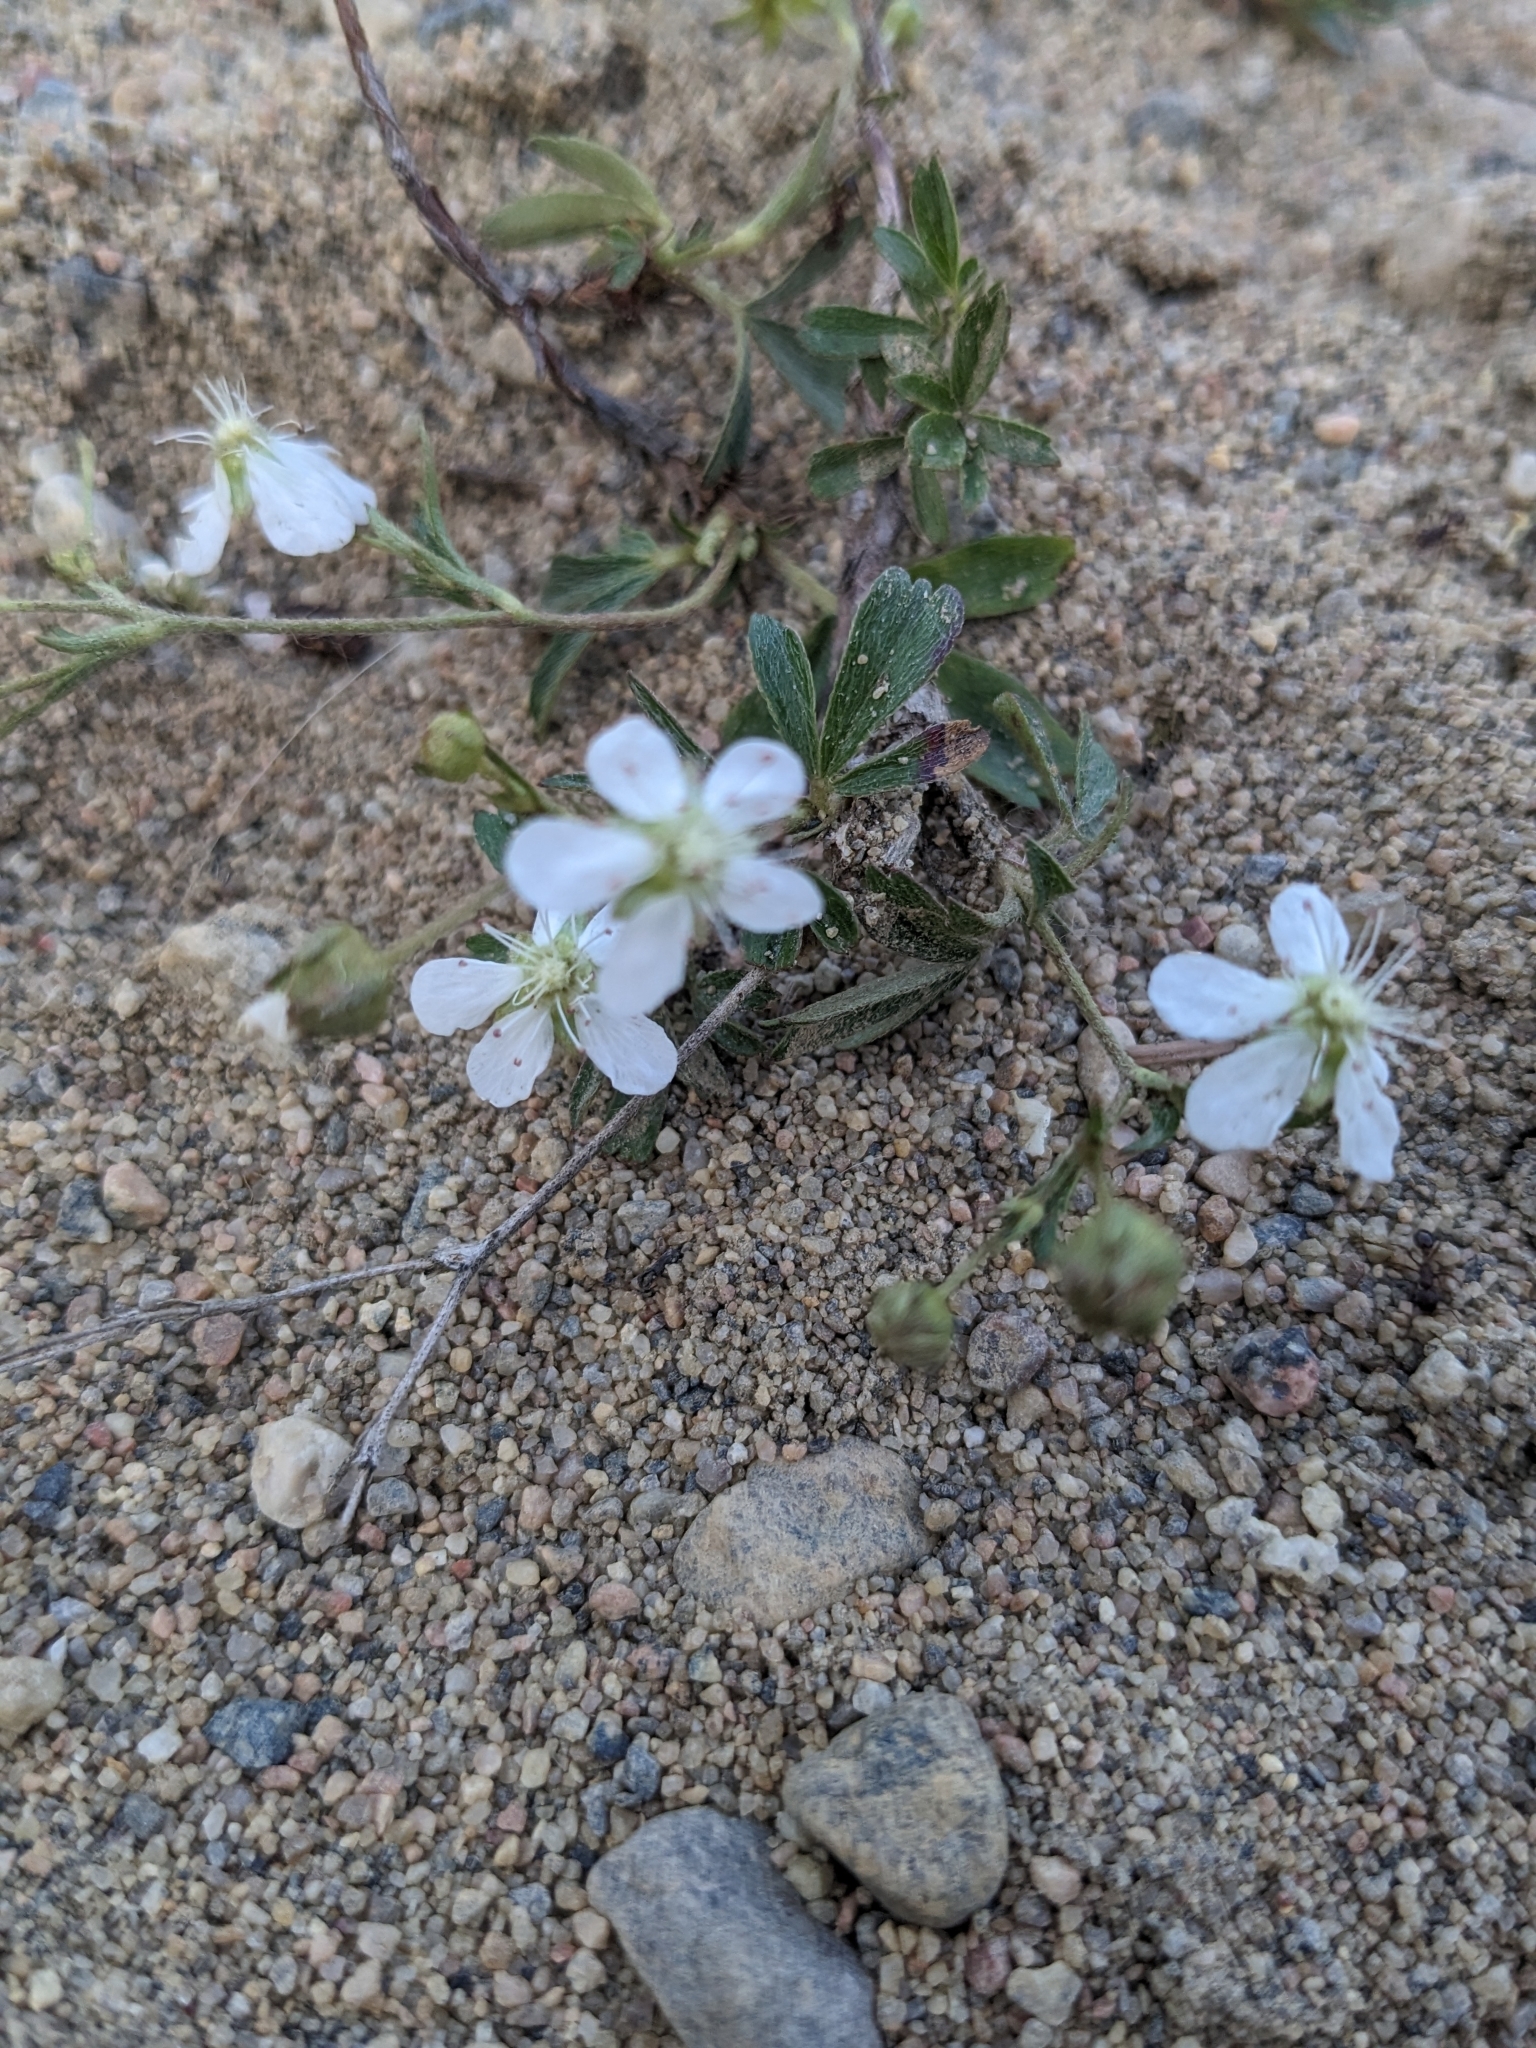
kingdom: Plantae
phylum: Tracheophyta
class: Magnoliopsida
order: Rosales
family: Rosaceae
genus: Sibbaldia
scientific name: Sibbaldia tridentata
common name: Three-toothed cinquefoil
